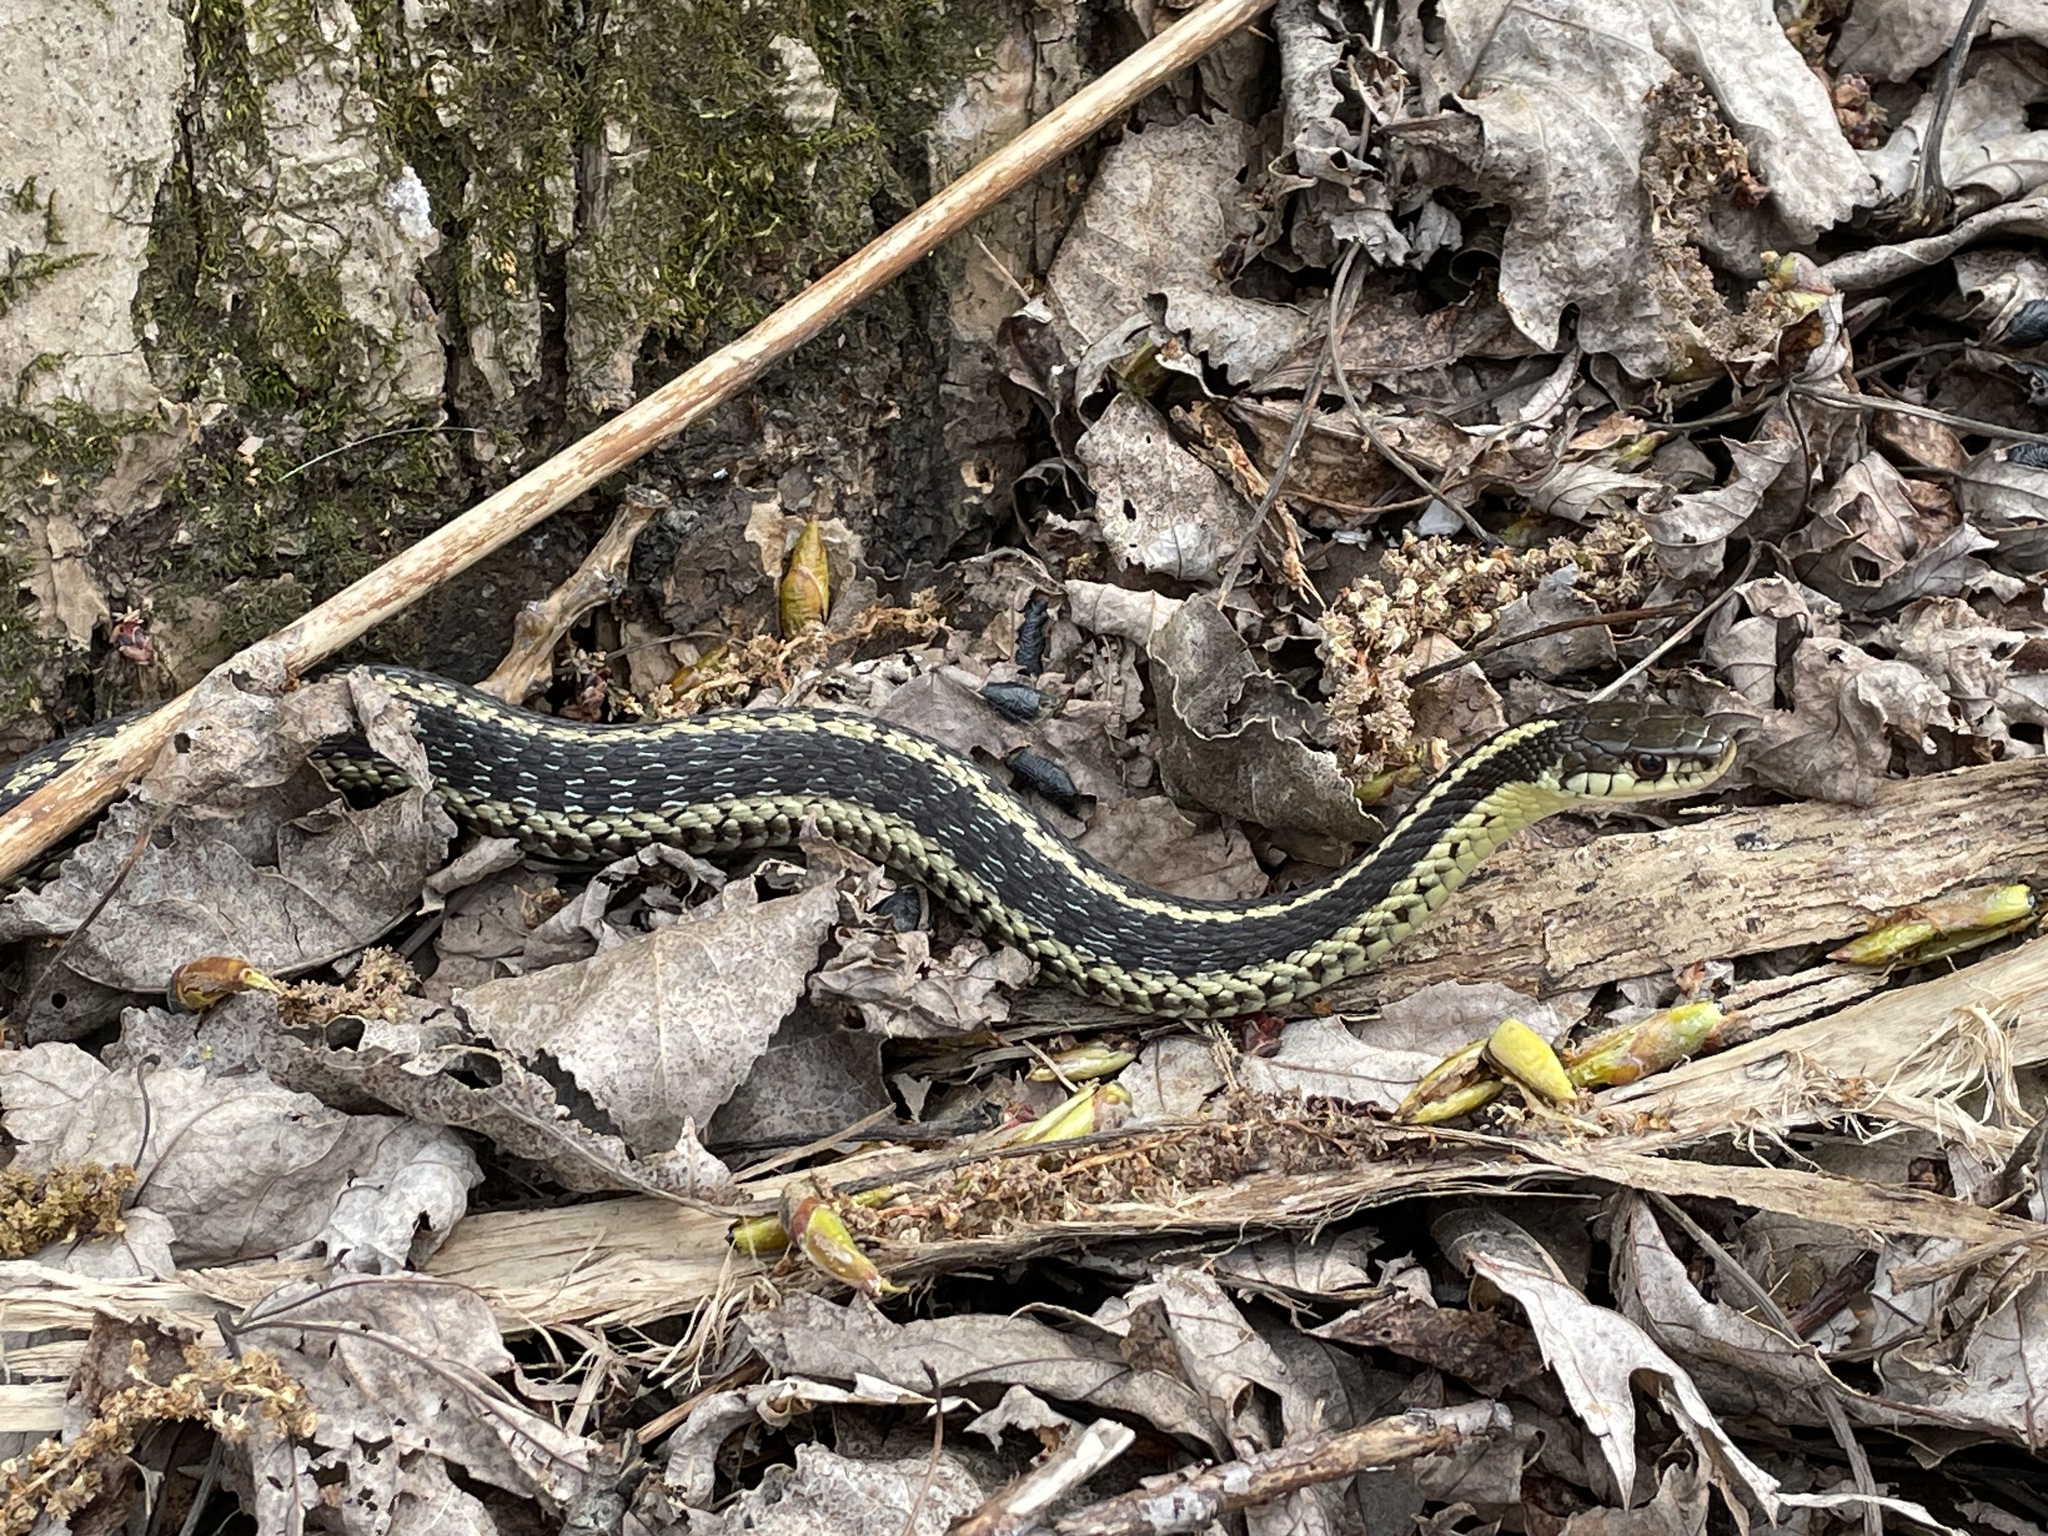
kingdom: Animalia
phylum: Chordata
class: Squamata
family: Colubridae
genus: Thamnophis
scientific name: Thamnophis sirtalis
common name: Common garter snake
